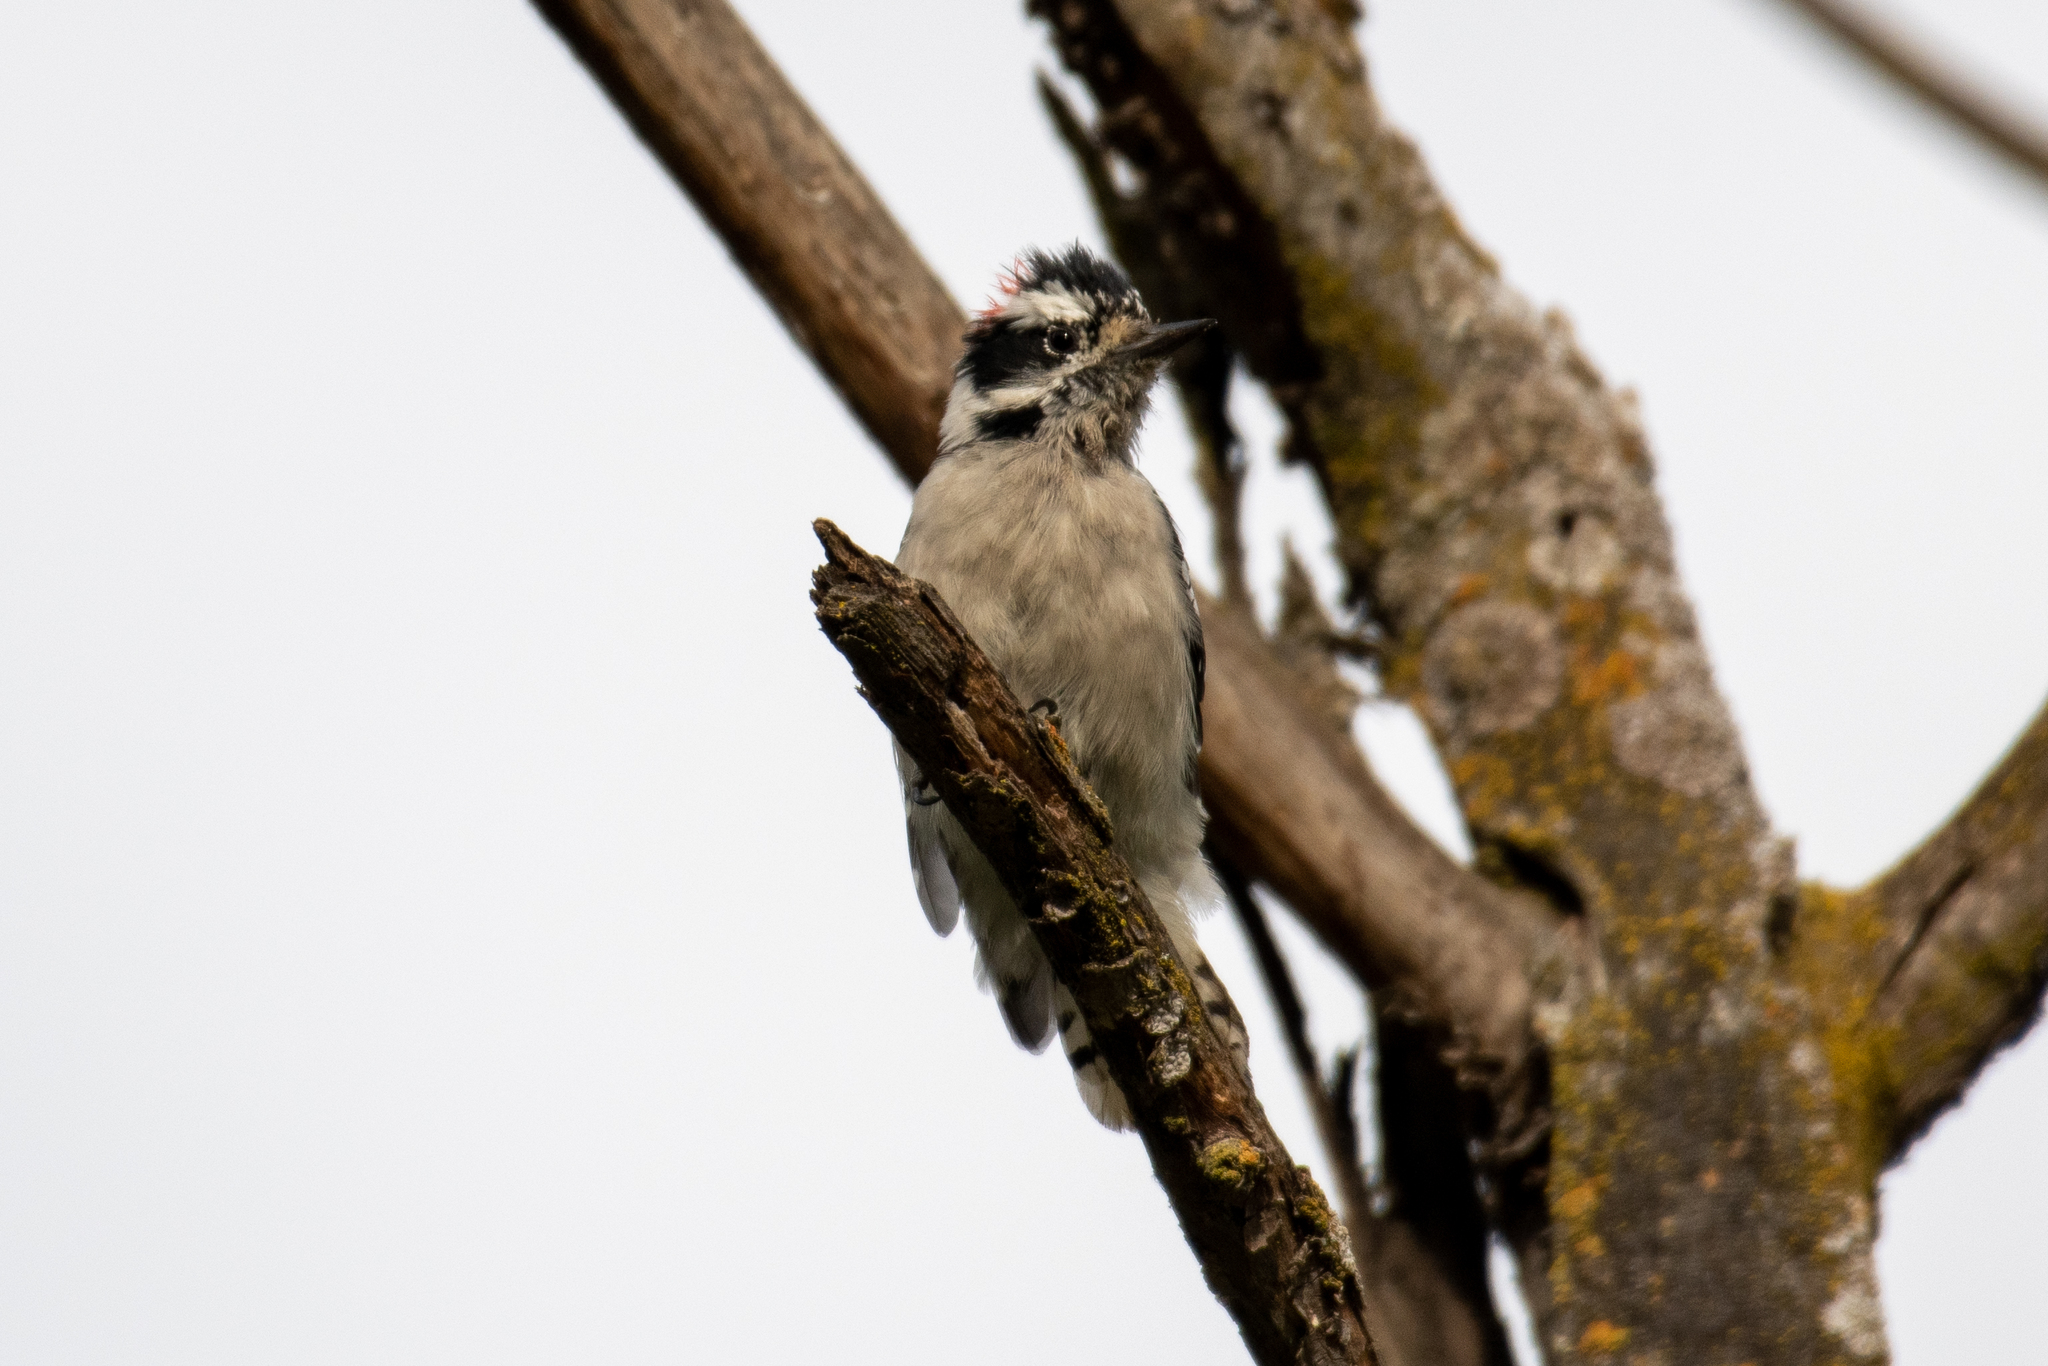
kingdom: Animalia
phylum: Chordata
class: Aves
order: Piciformes
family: Picidae
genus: Dryobates
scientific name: Dryobates pubescens
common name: Downy woodpecker
